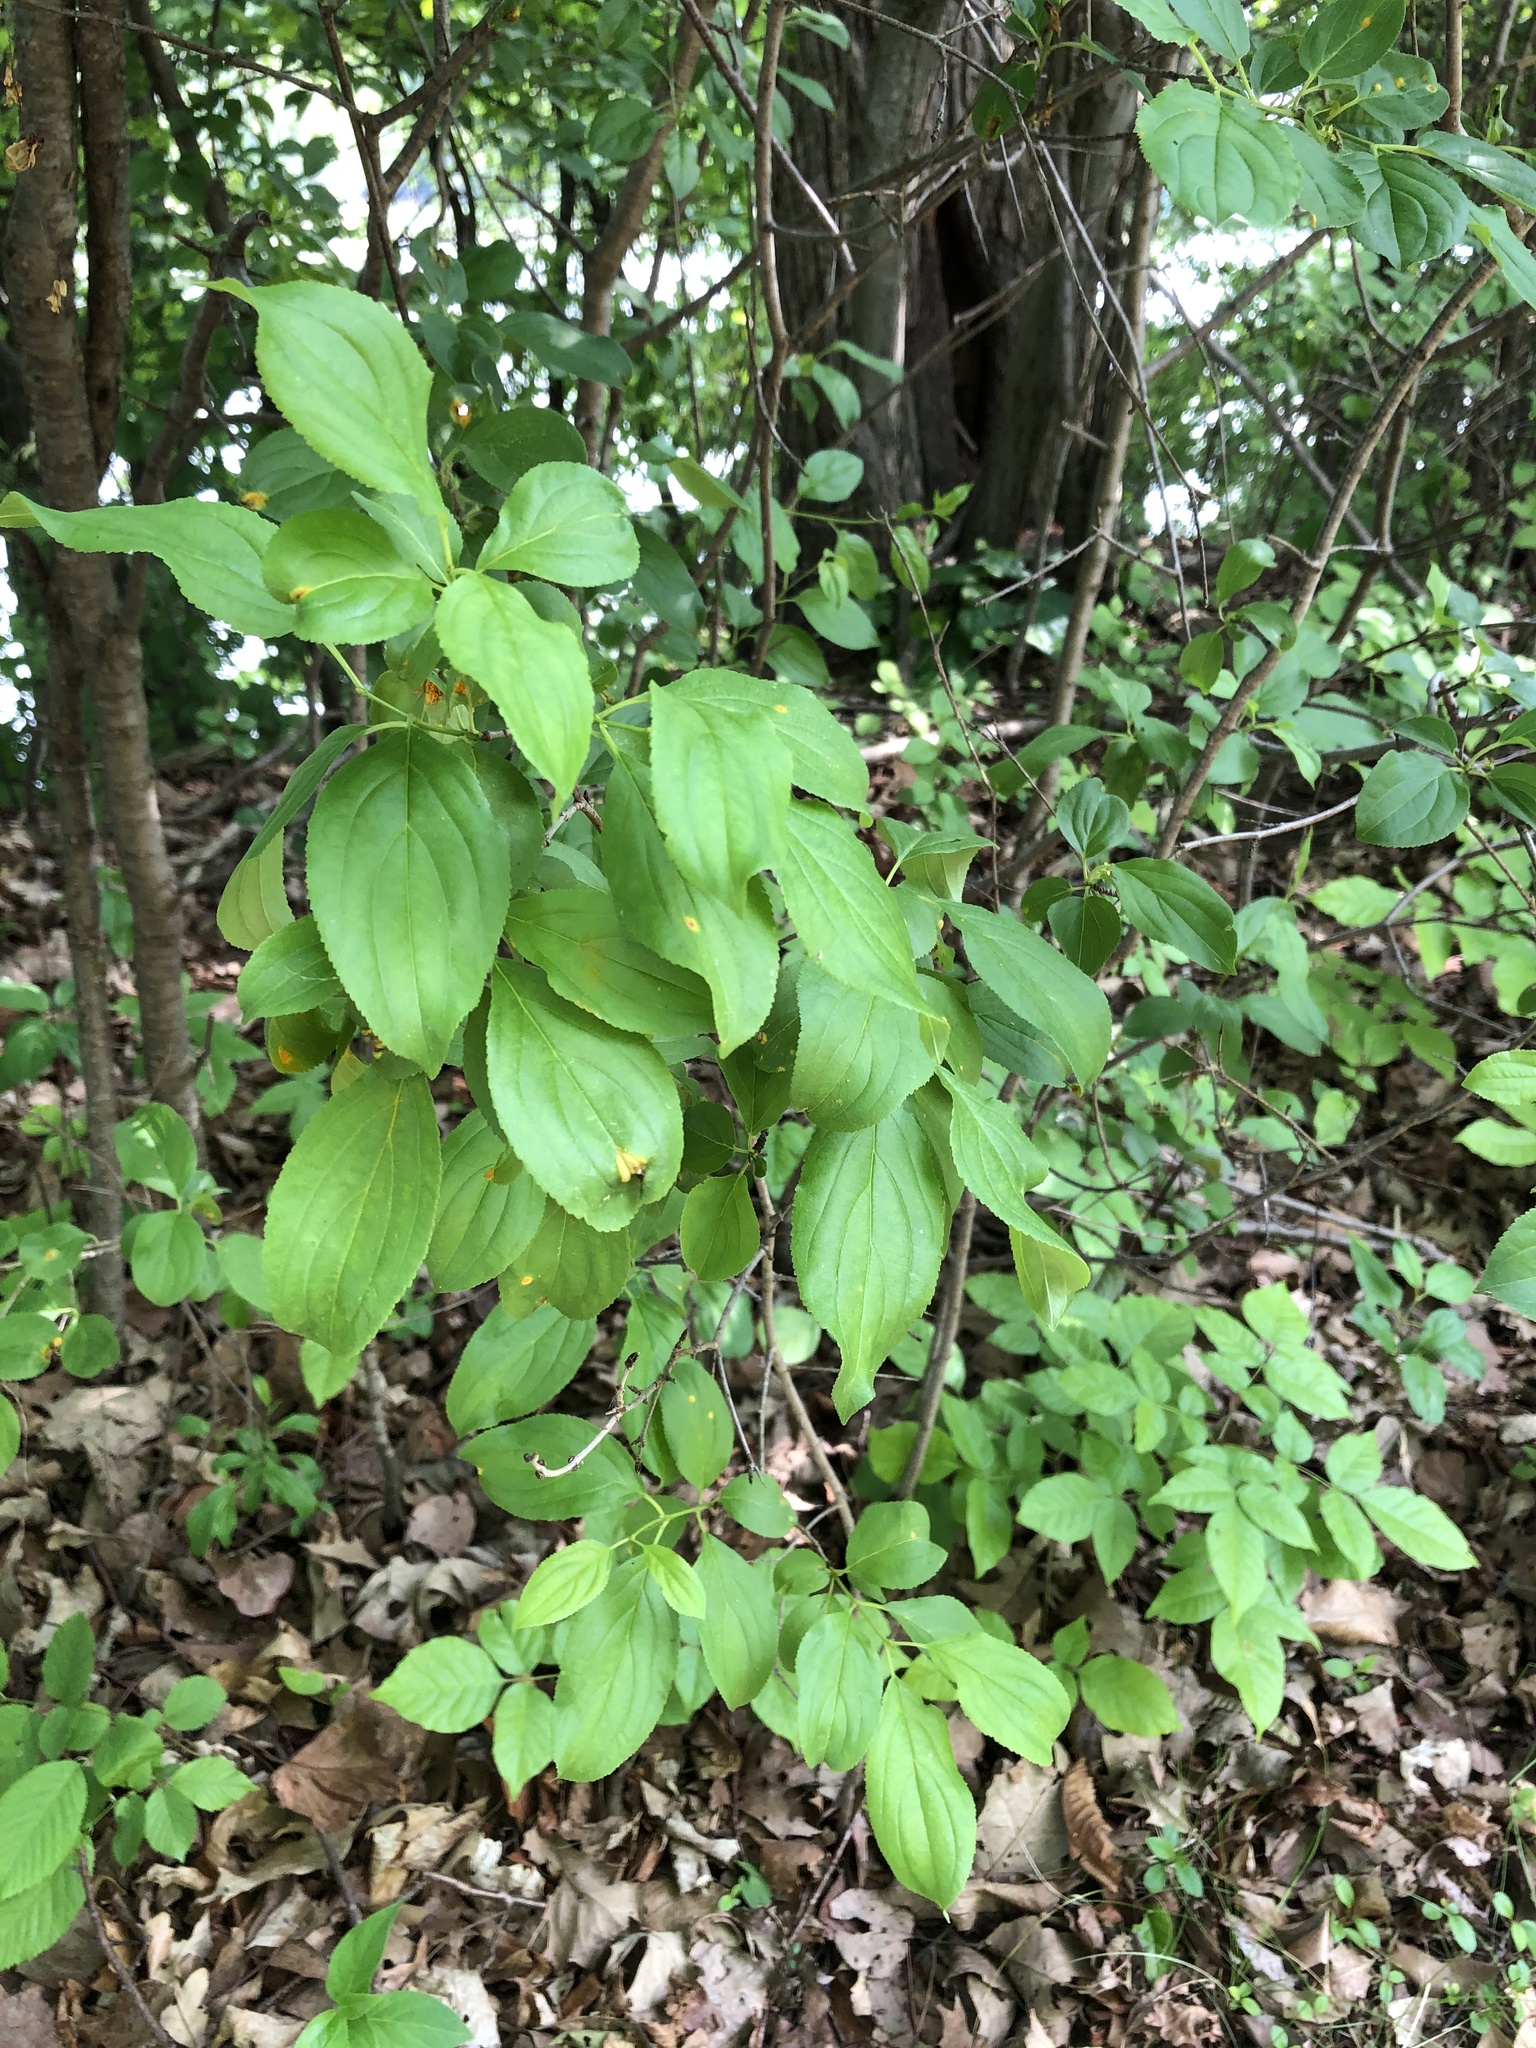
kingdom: Plantae
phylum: Tracheophyta
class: Magnoliopsida
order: Rosales
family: Rhamnaceae
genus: Rhamnus
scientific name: Rhamnus cathartica
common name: Common buckthorn
